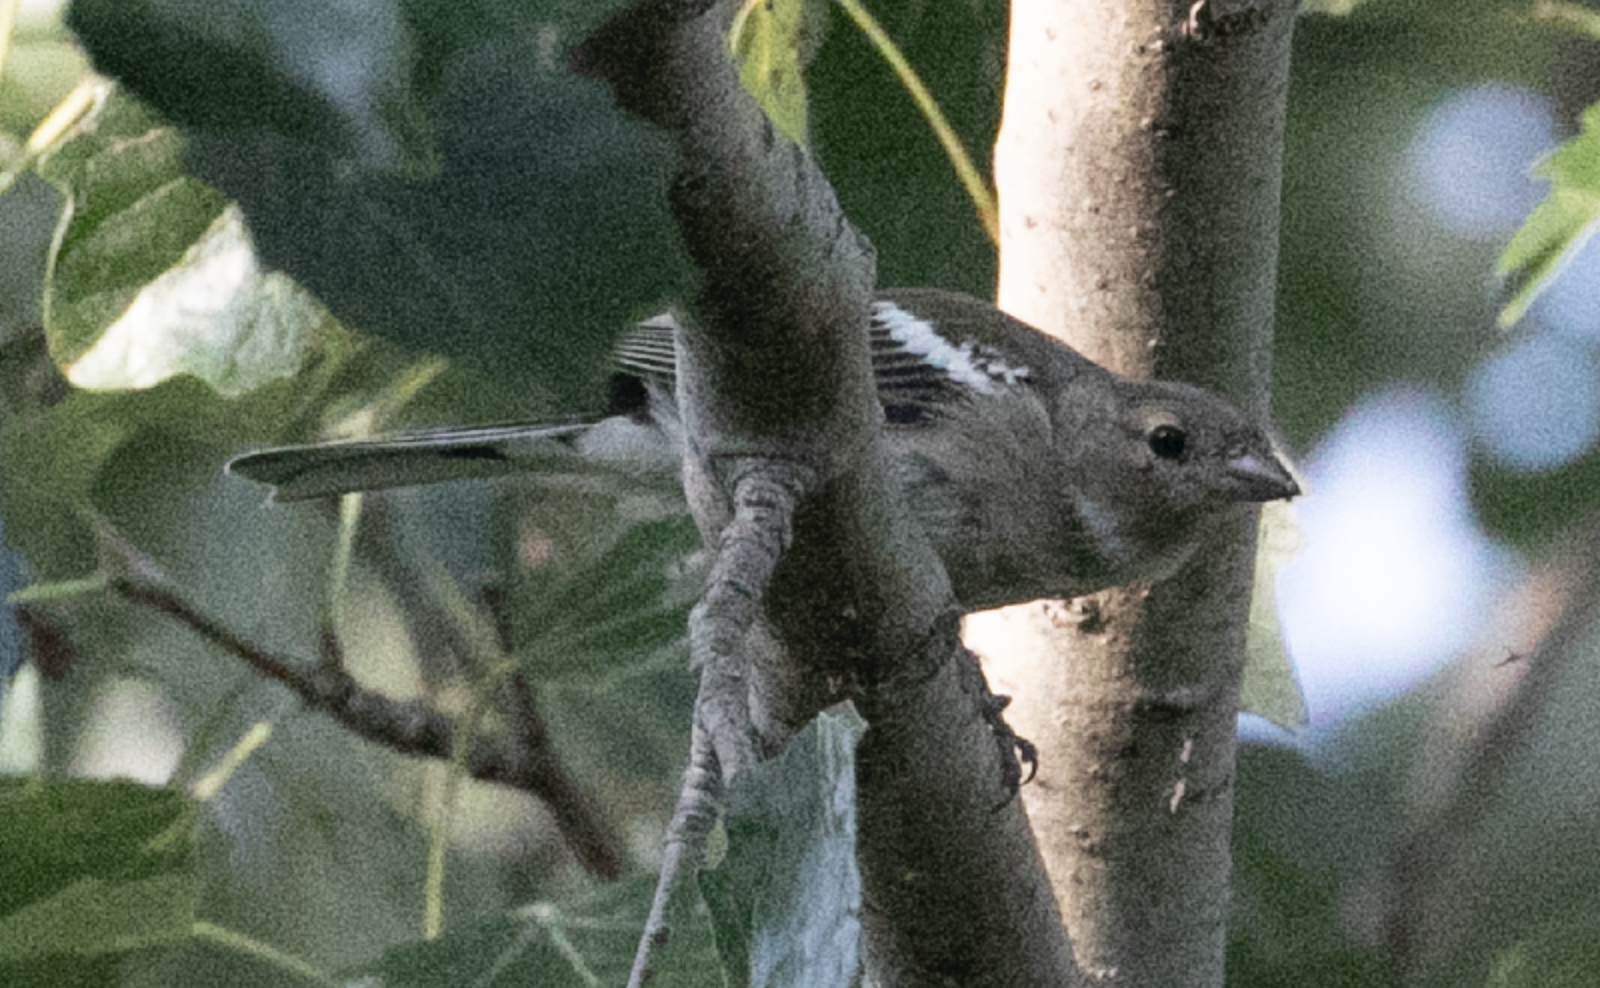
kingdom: Animalia
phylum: Chordata
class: Aves
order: Passeriformes
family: Fringillidae
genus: Fringilla
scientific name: Fringilla coelebs
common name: Common chaffinch
